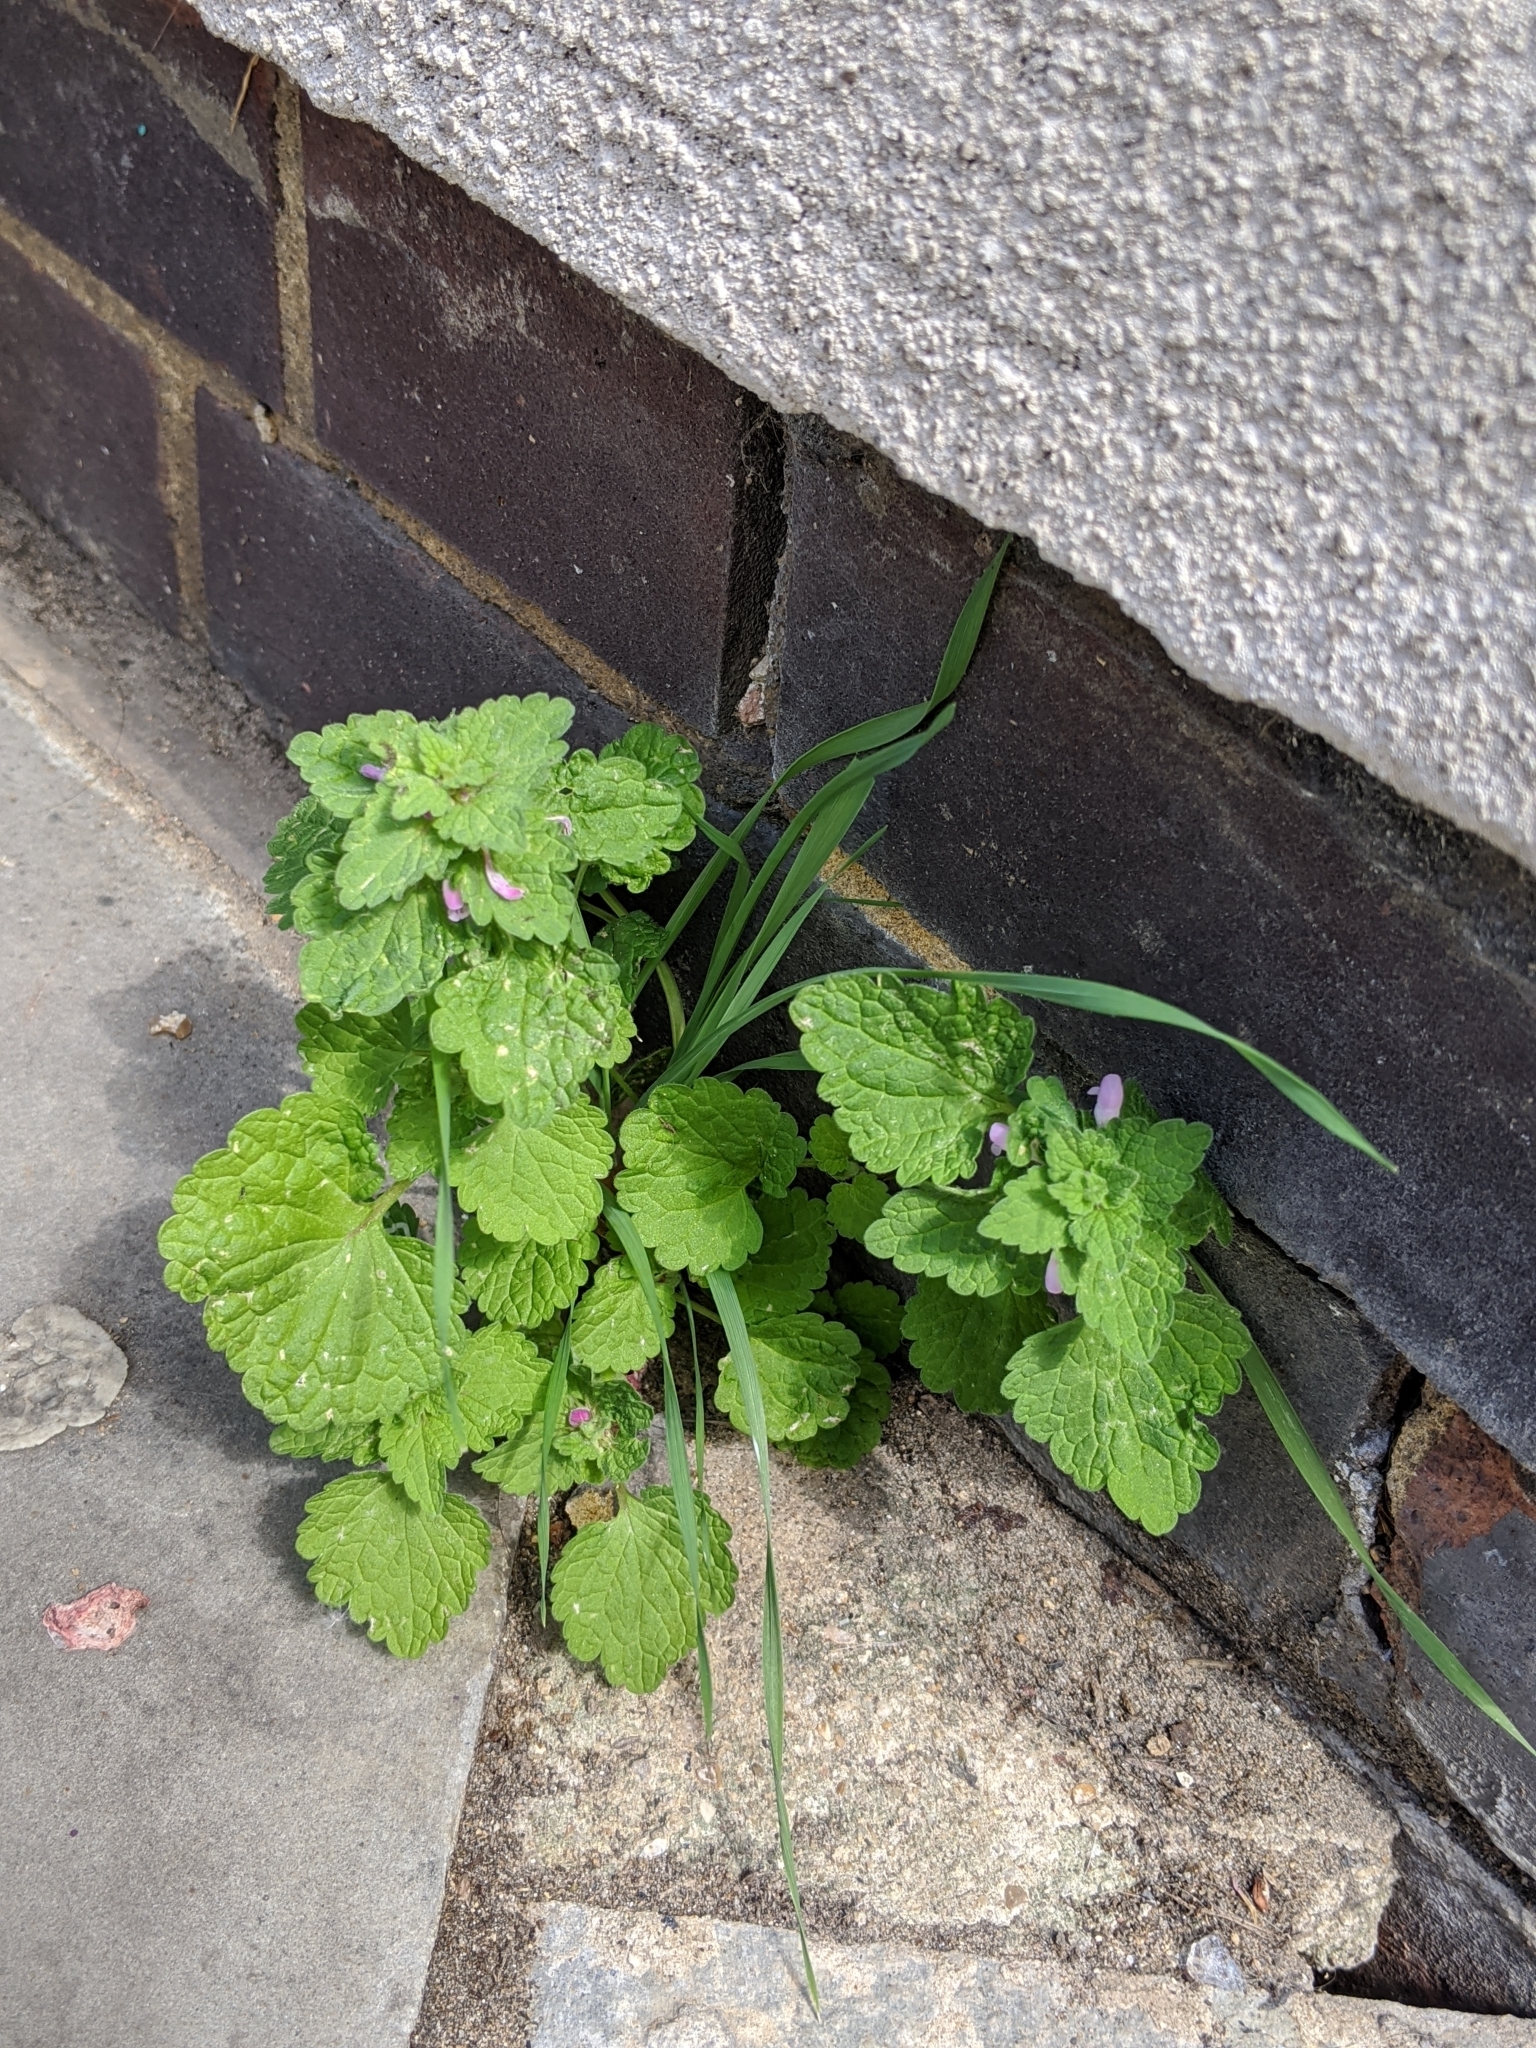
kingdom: Plantae
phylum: Tracheophyta
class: Magnoliopsida
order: Lamiales
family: Lamiaceae
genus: Lamium
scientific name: Lamium purpureum
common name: Red dead-nettle
